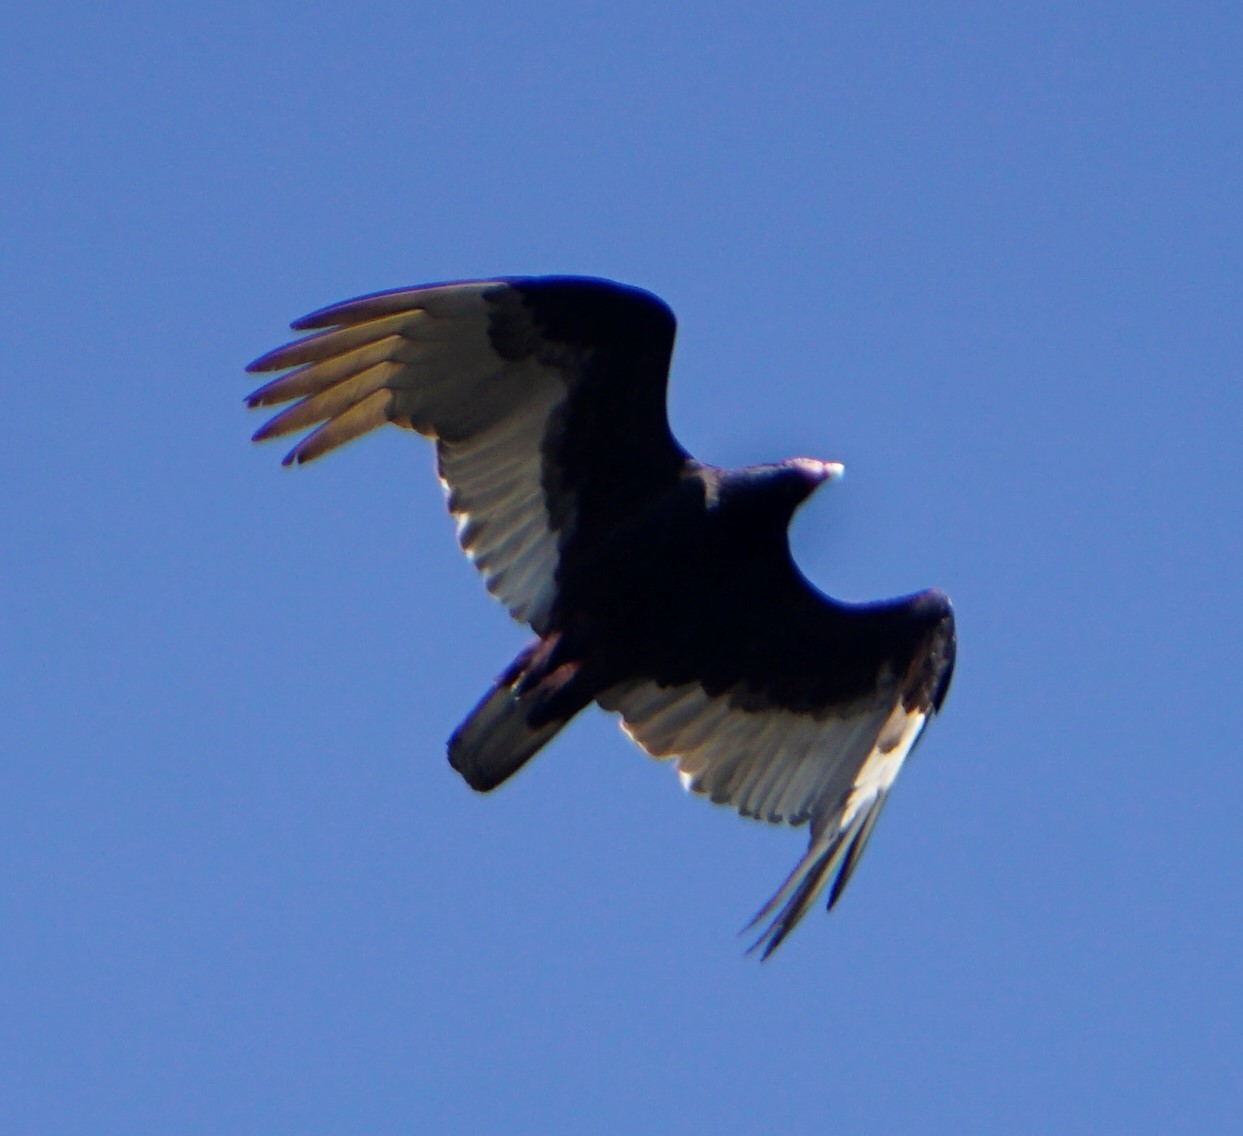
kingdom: Animalia
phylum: Chordata
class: Aves
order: Accipitriformes
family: Cathartidae
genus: Cathartes
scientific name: Cathartes aura
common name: Turkey vulture
